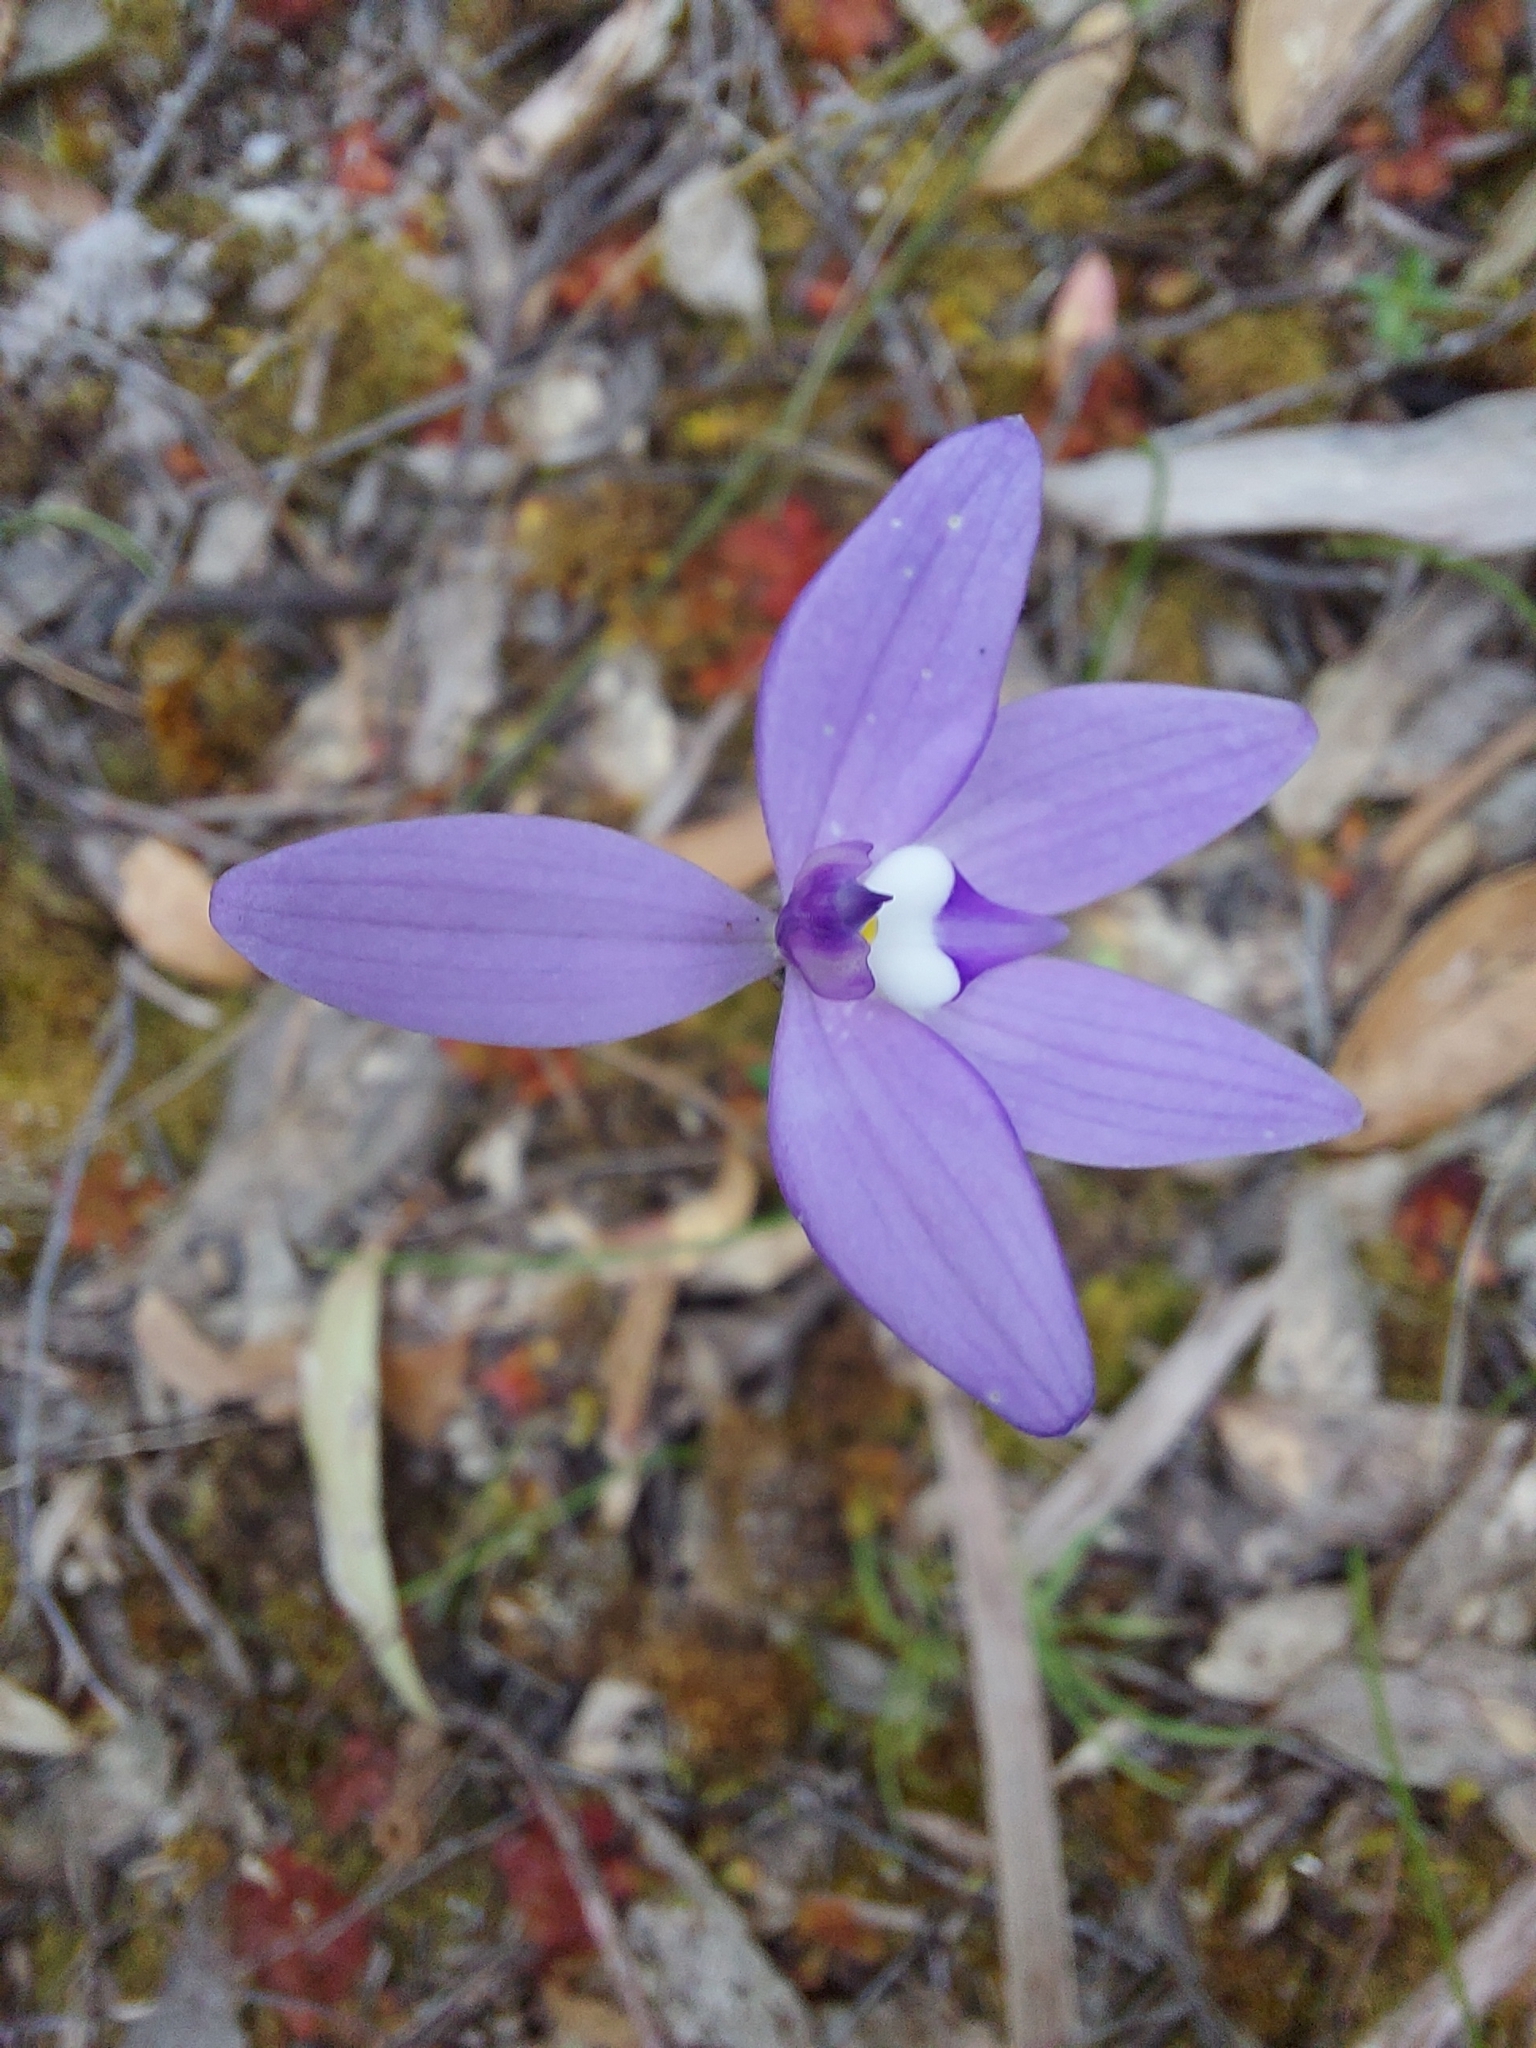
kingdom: Plantae
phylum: Tracheophyta
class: Liliopsida
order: Asparagales
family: Orchidaceae
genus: Caladenia
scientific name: Caladenia major
